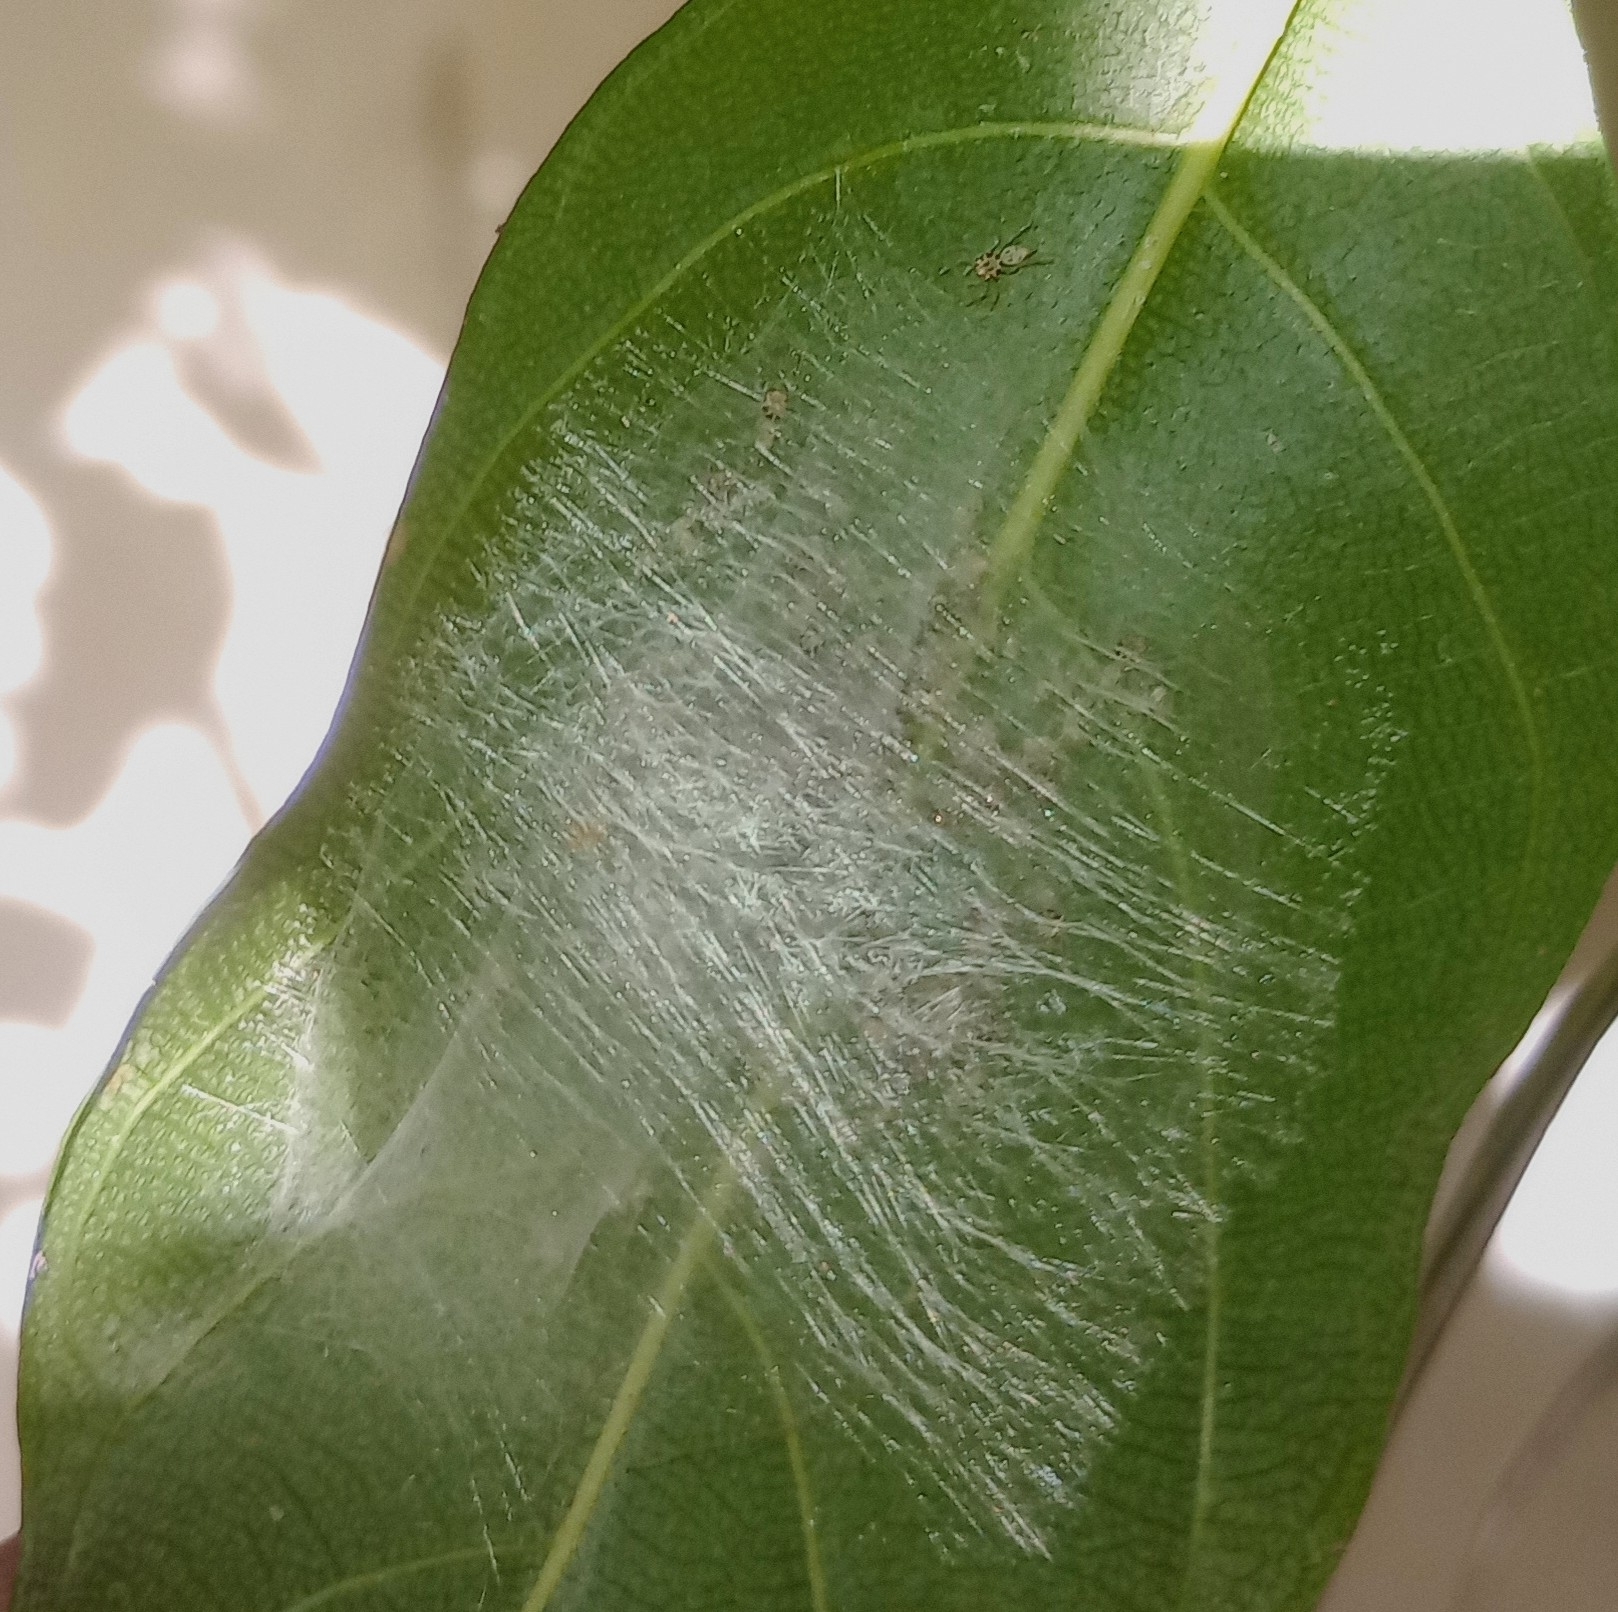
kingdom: Animalia
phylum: Arthropoda
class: Arachnida
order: Araneae
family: Salticidae
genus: Telamonia
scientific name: Telamonia dimidiata
